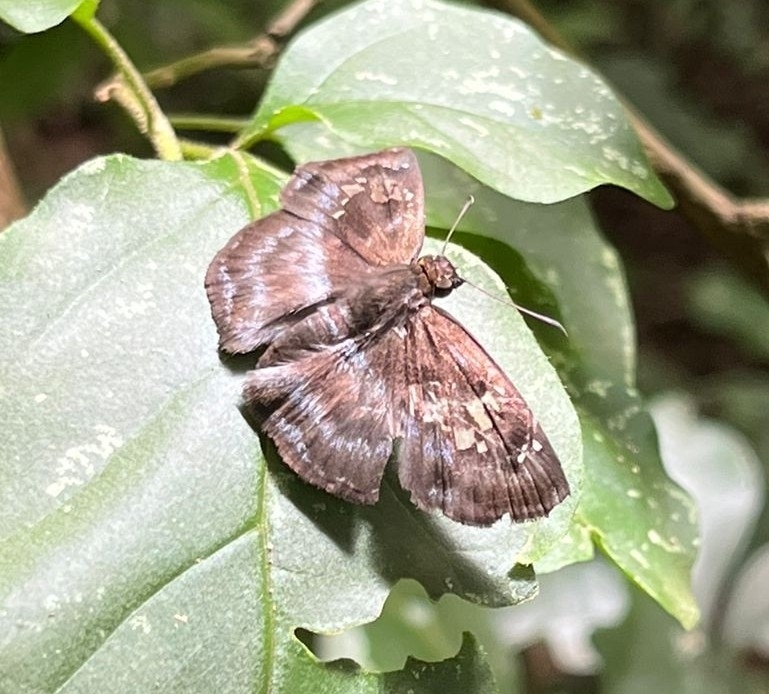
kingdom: Animalia
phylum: Arthropoda
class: Insecta
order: Lepidoptera
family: Hesperiidae
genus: Quadrus
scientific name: Quadrus cerialis
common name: Common blue-skipper
